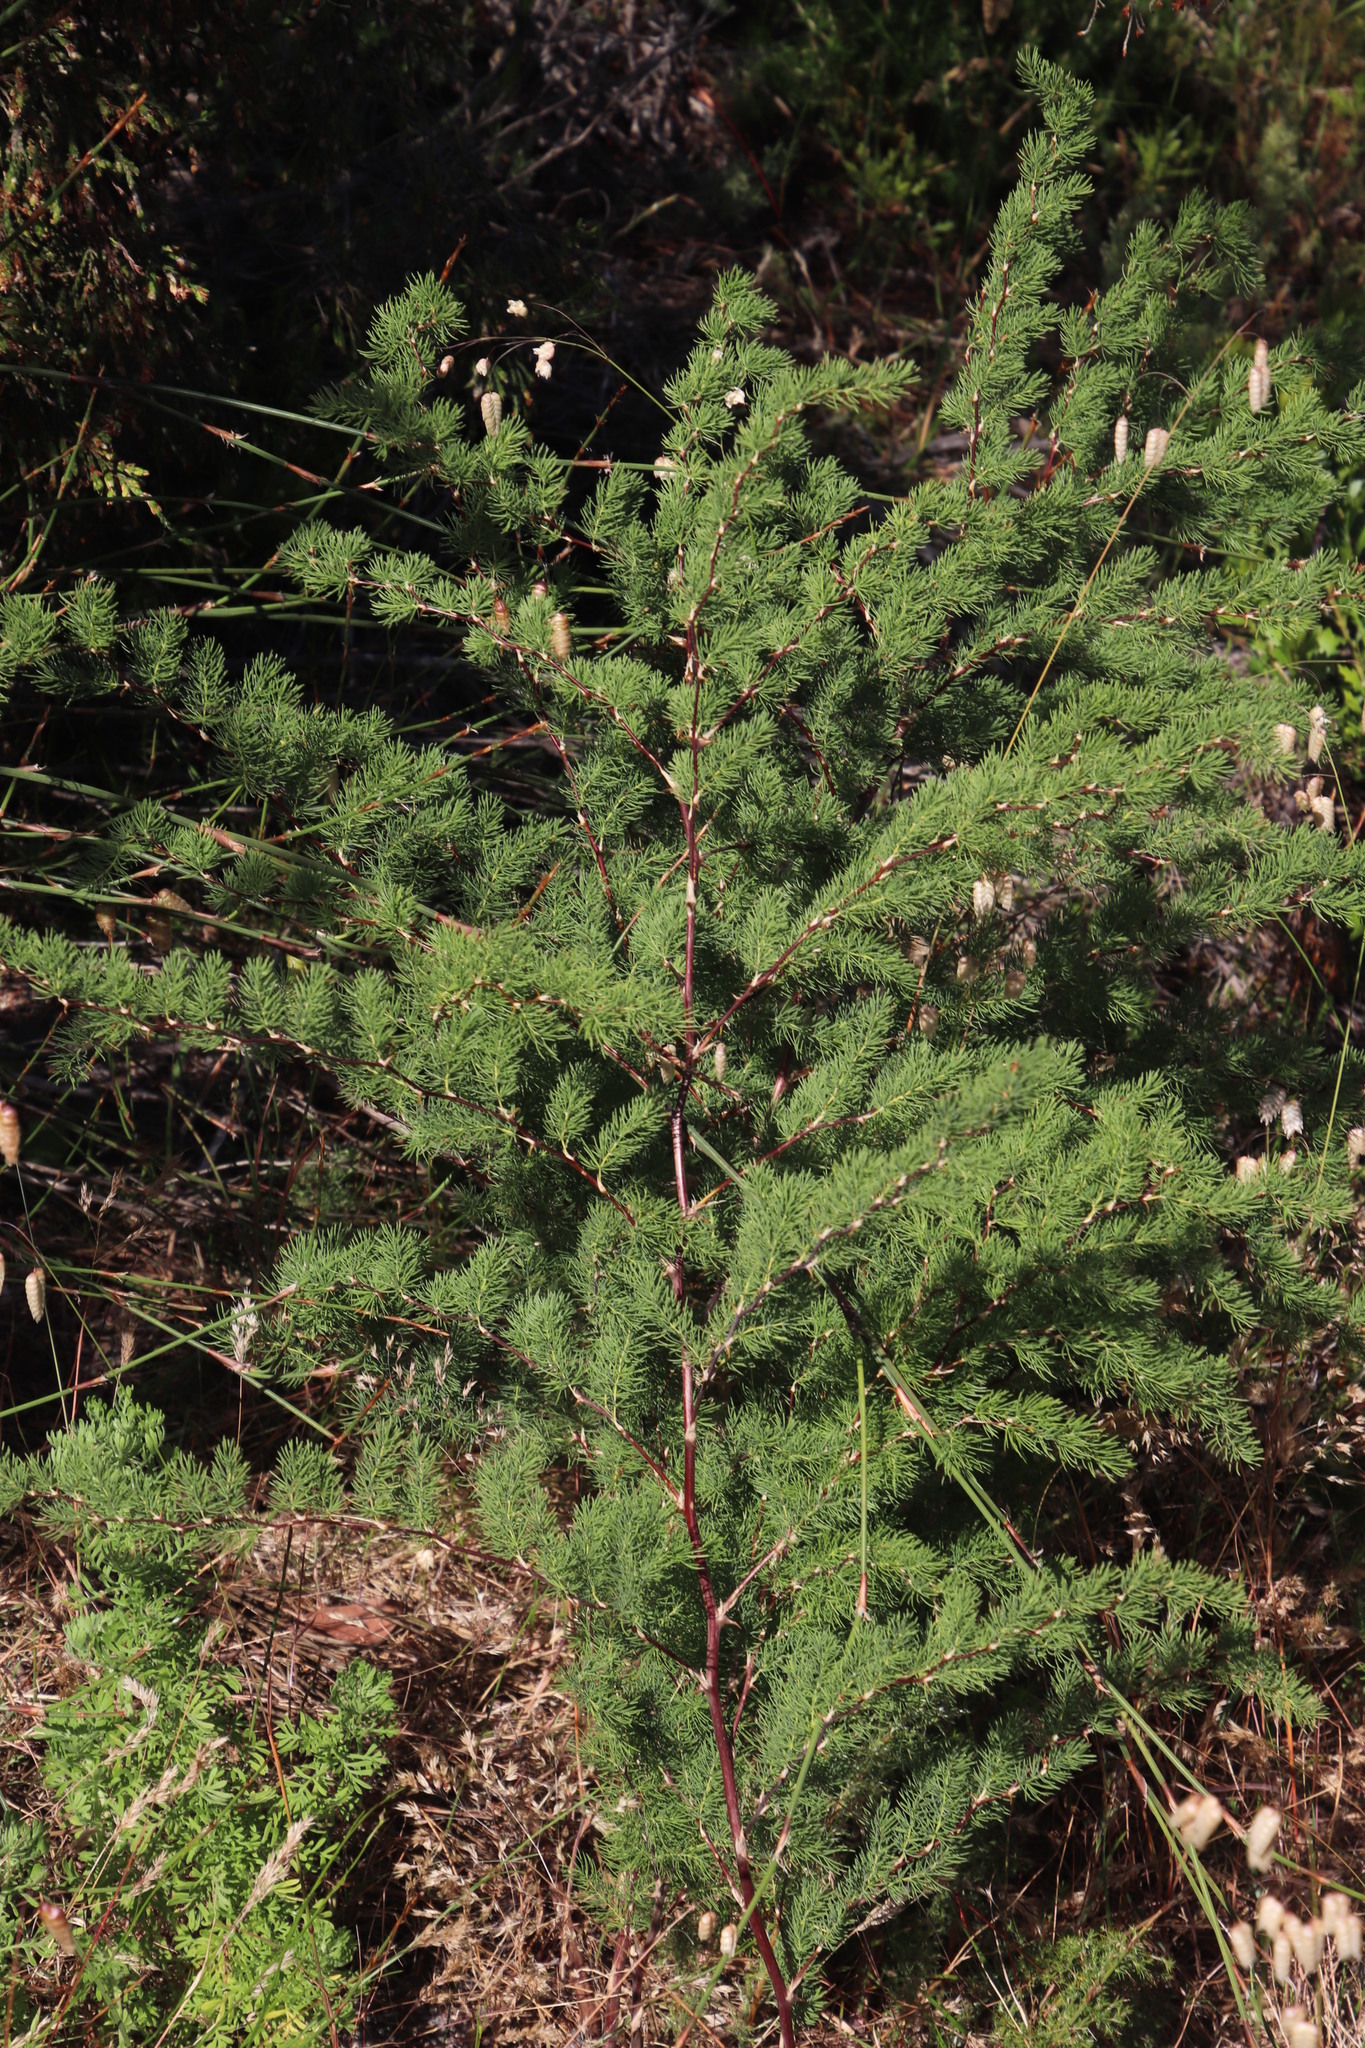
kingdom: Plantae
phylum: Tracheophyta
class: Liliopsida
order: Asparagales
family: Asparagaceae
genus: Asparagus
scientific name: Asparagus rubicundus
